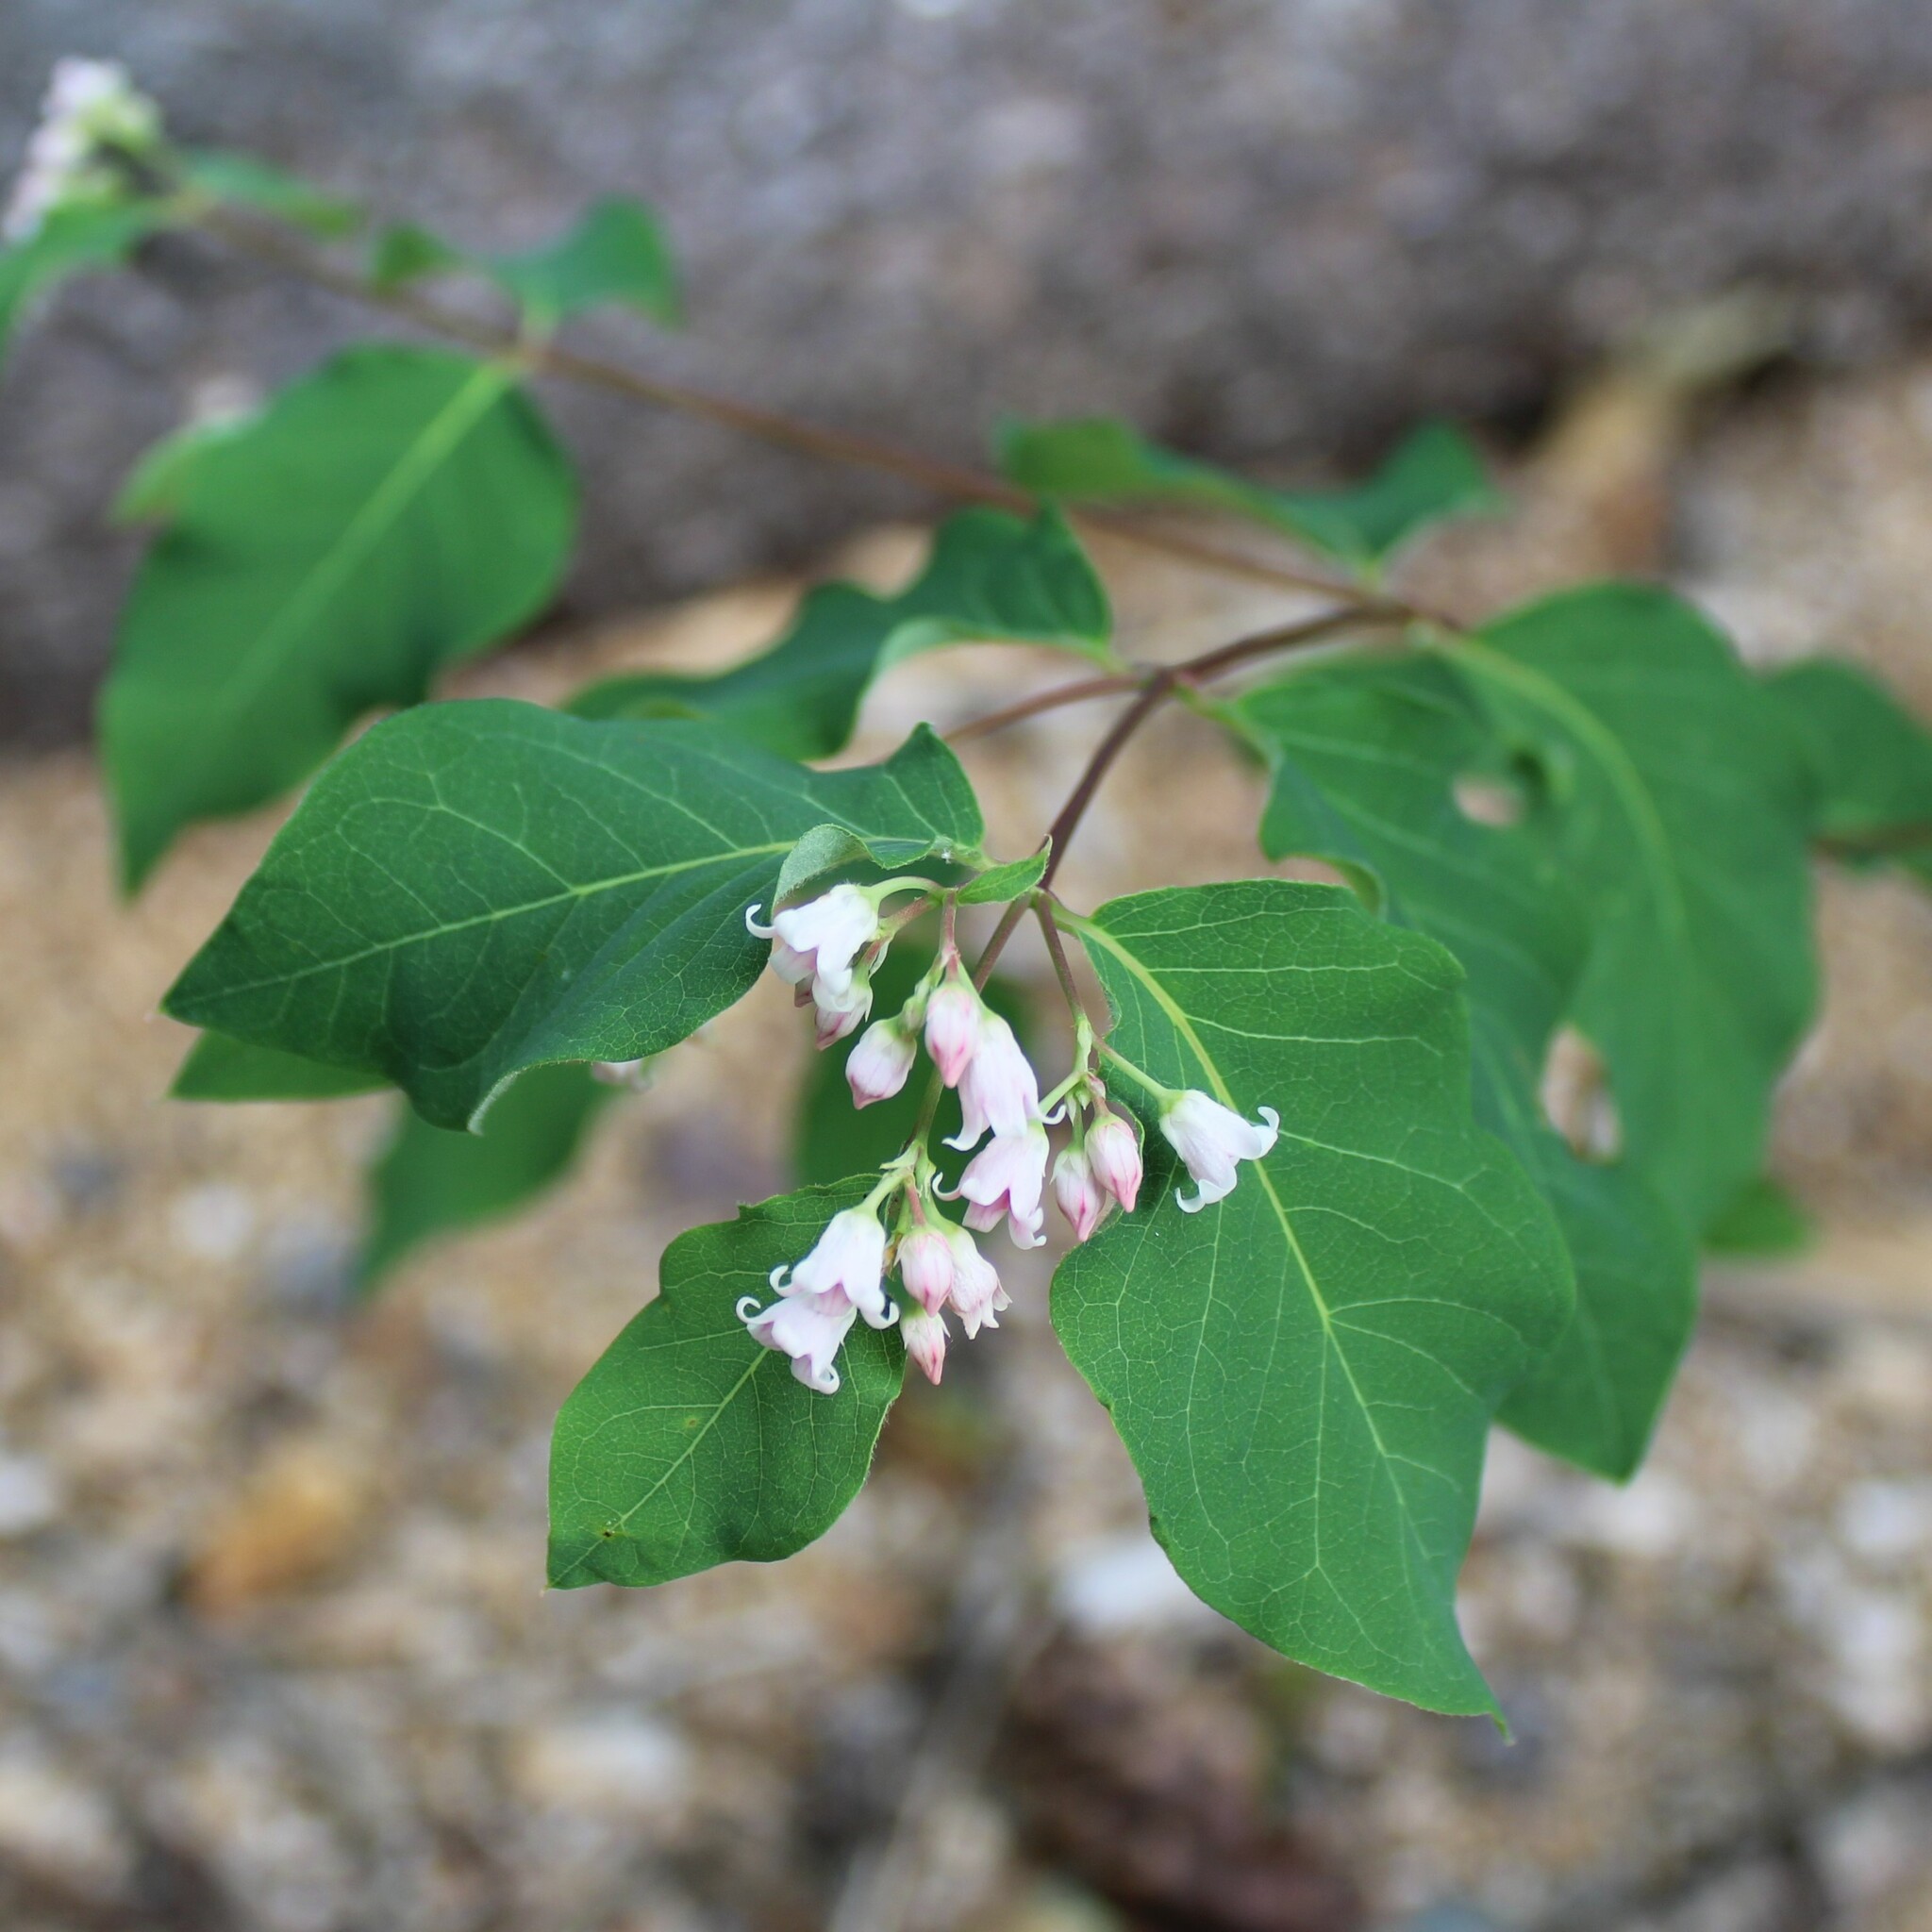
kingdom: Plantae
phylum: Tracheophyta
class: Magnoliopsida
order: Gentianales
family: Apocynaceae
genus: Apocynum
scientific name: Apocynum androsaemifolium
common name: Spreading dogbane
